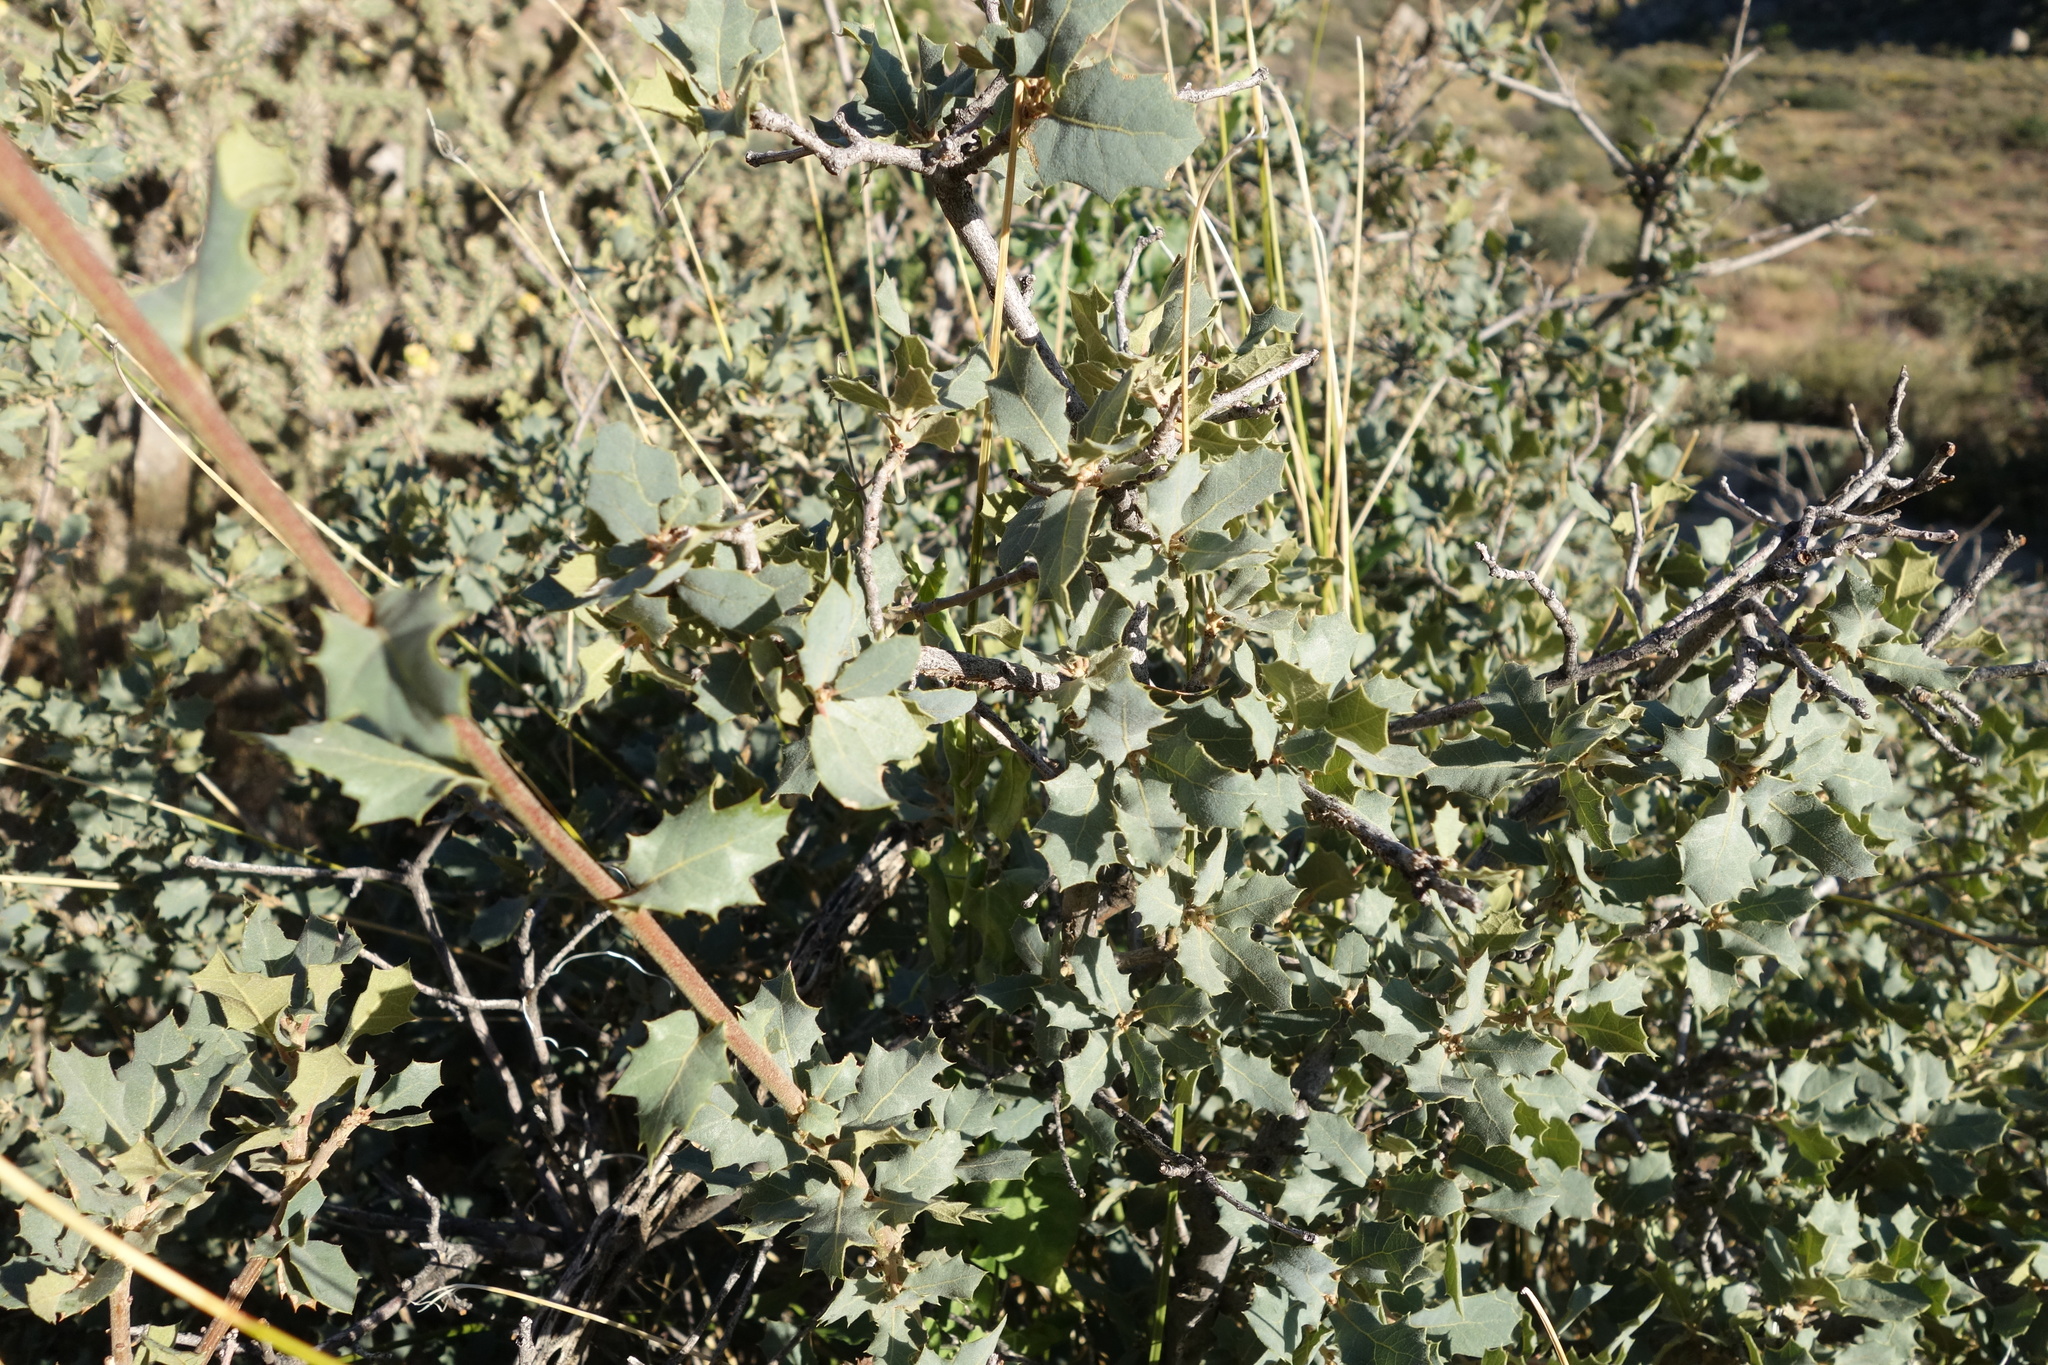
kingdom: Plantae
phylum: Tracheophyta
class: Magnoliopsida
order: Fagales
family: Fagaceae
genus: Quercus
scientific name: Quercus turbinella
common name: Sonoran scrub oak
